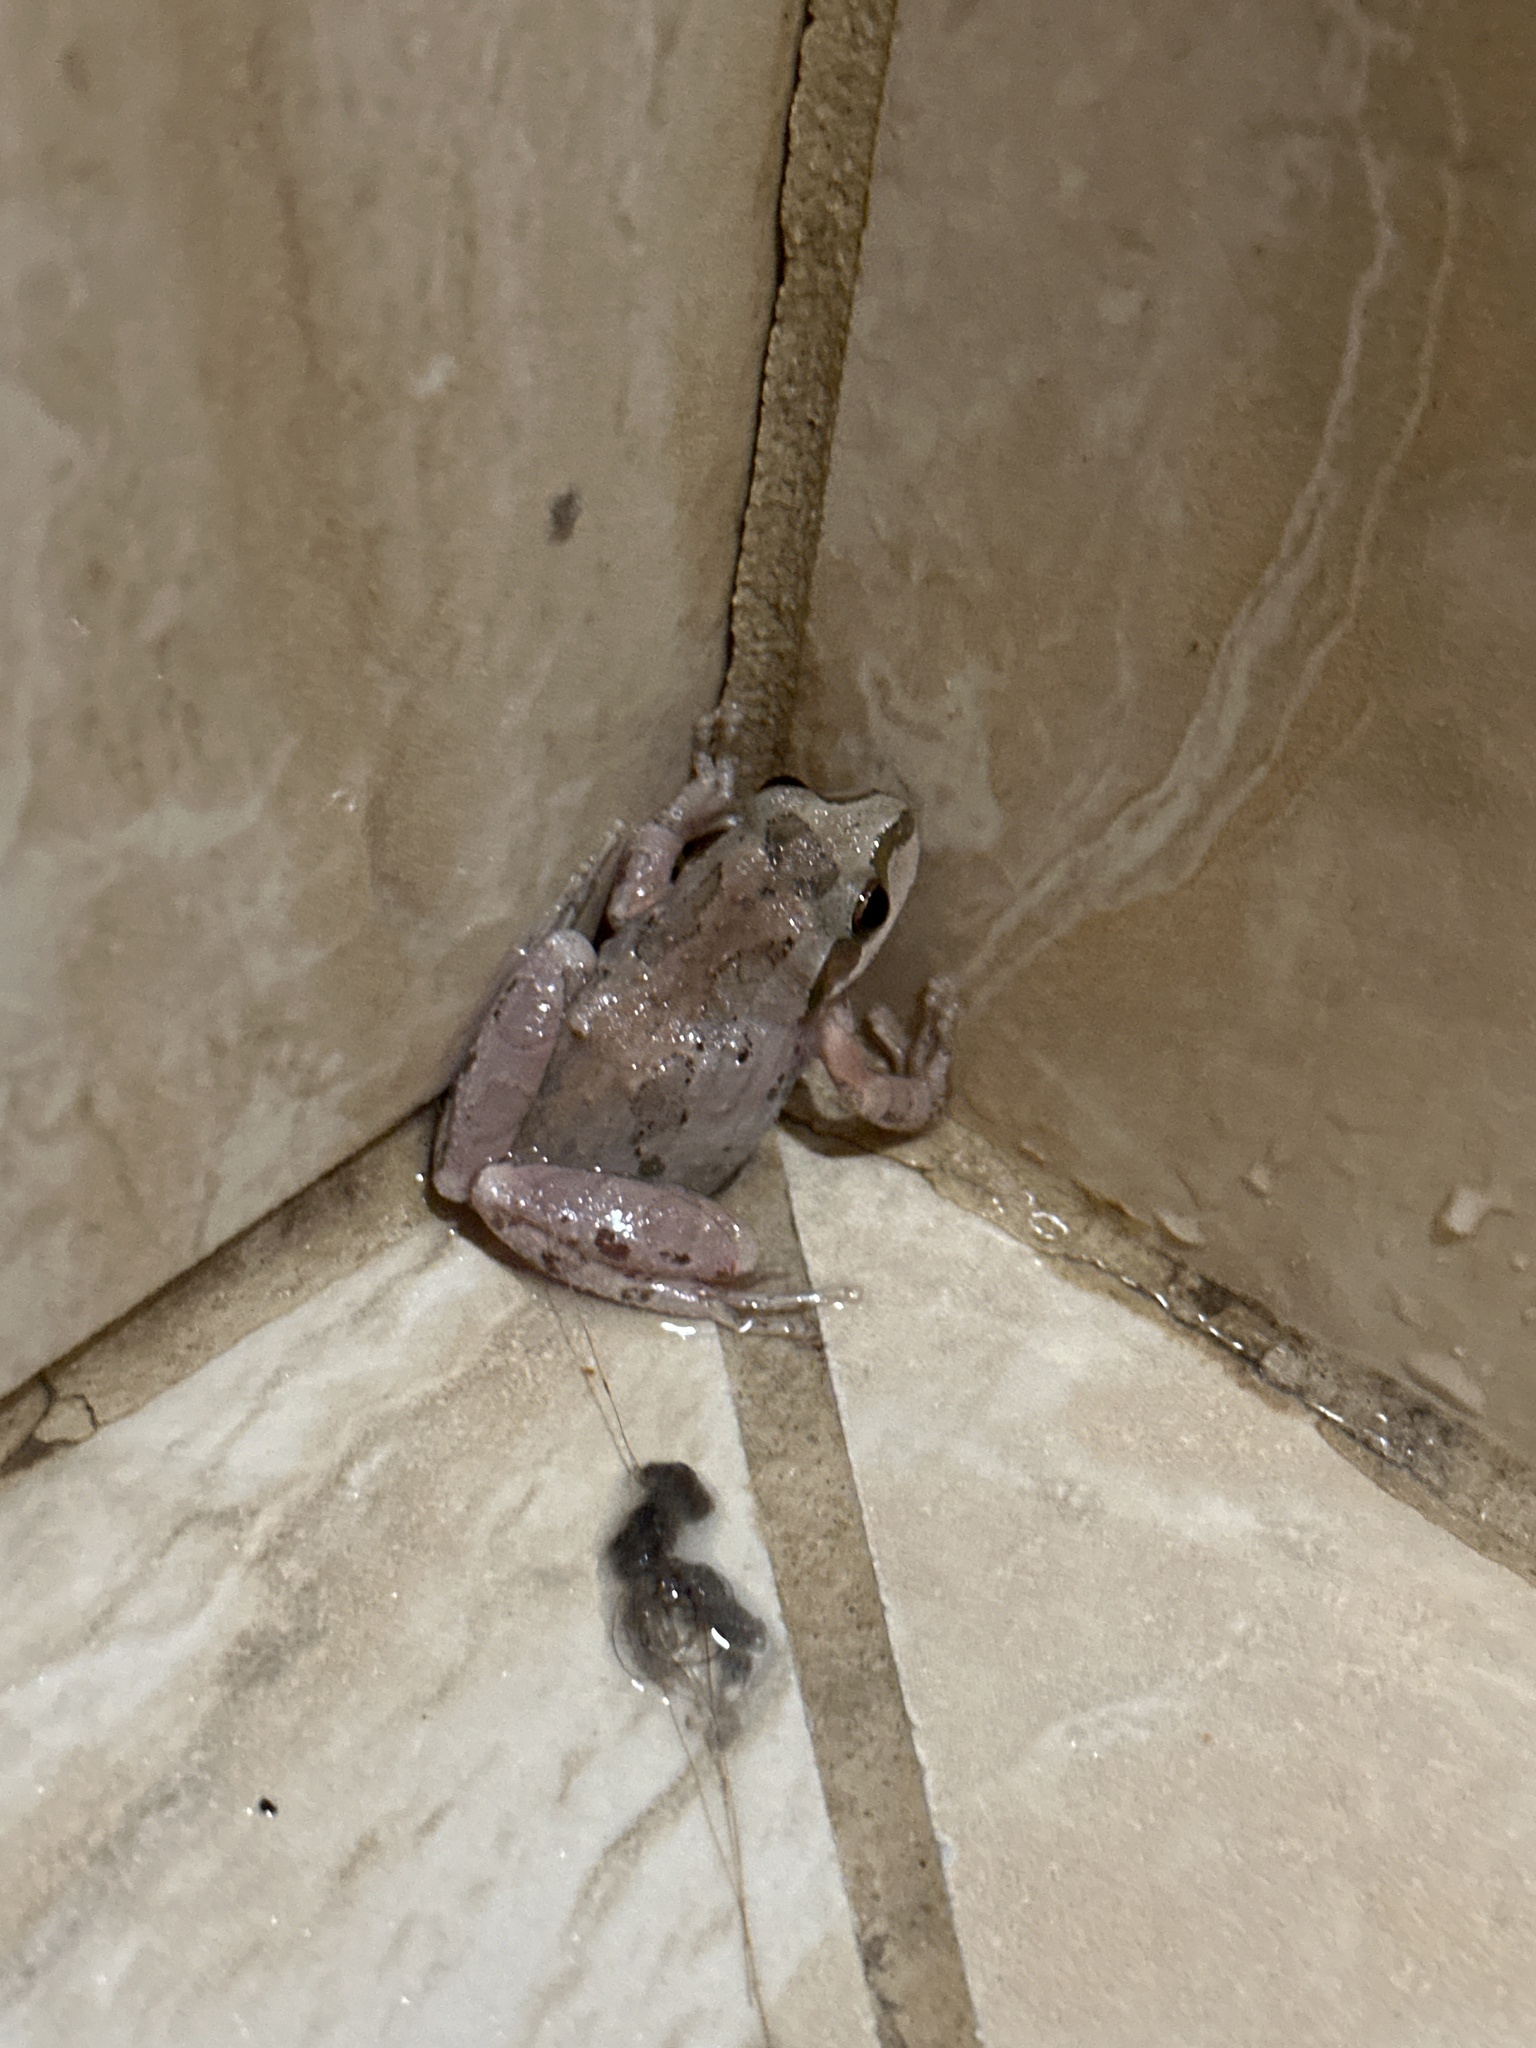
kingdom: Animalia
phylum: Chordata
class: Amphibia
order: Anura
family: Hylidae
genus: Pseudacris
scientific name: Pseudacris regilla
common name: Pacific chorus frog
